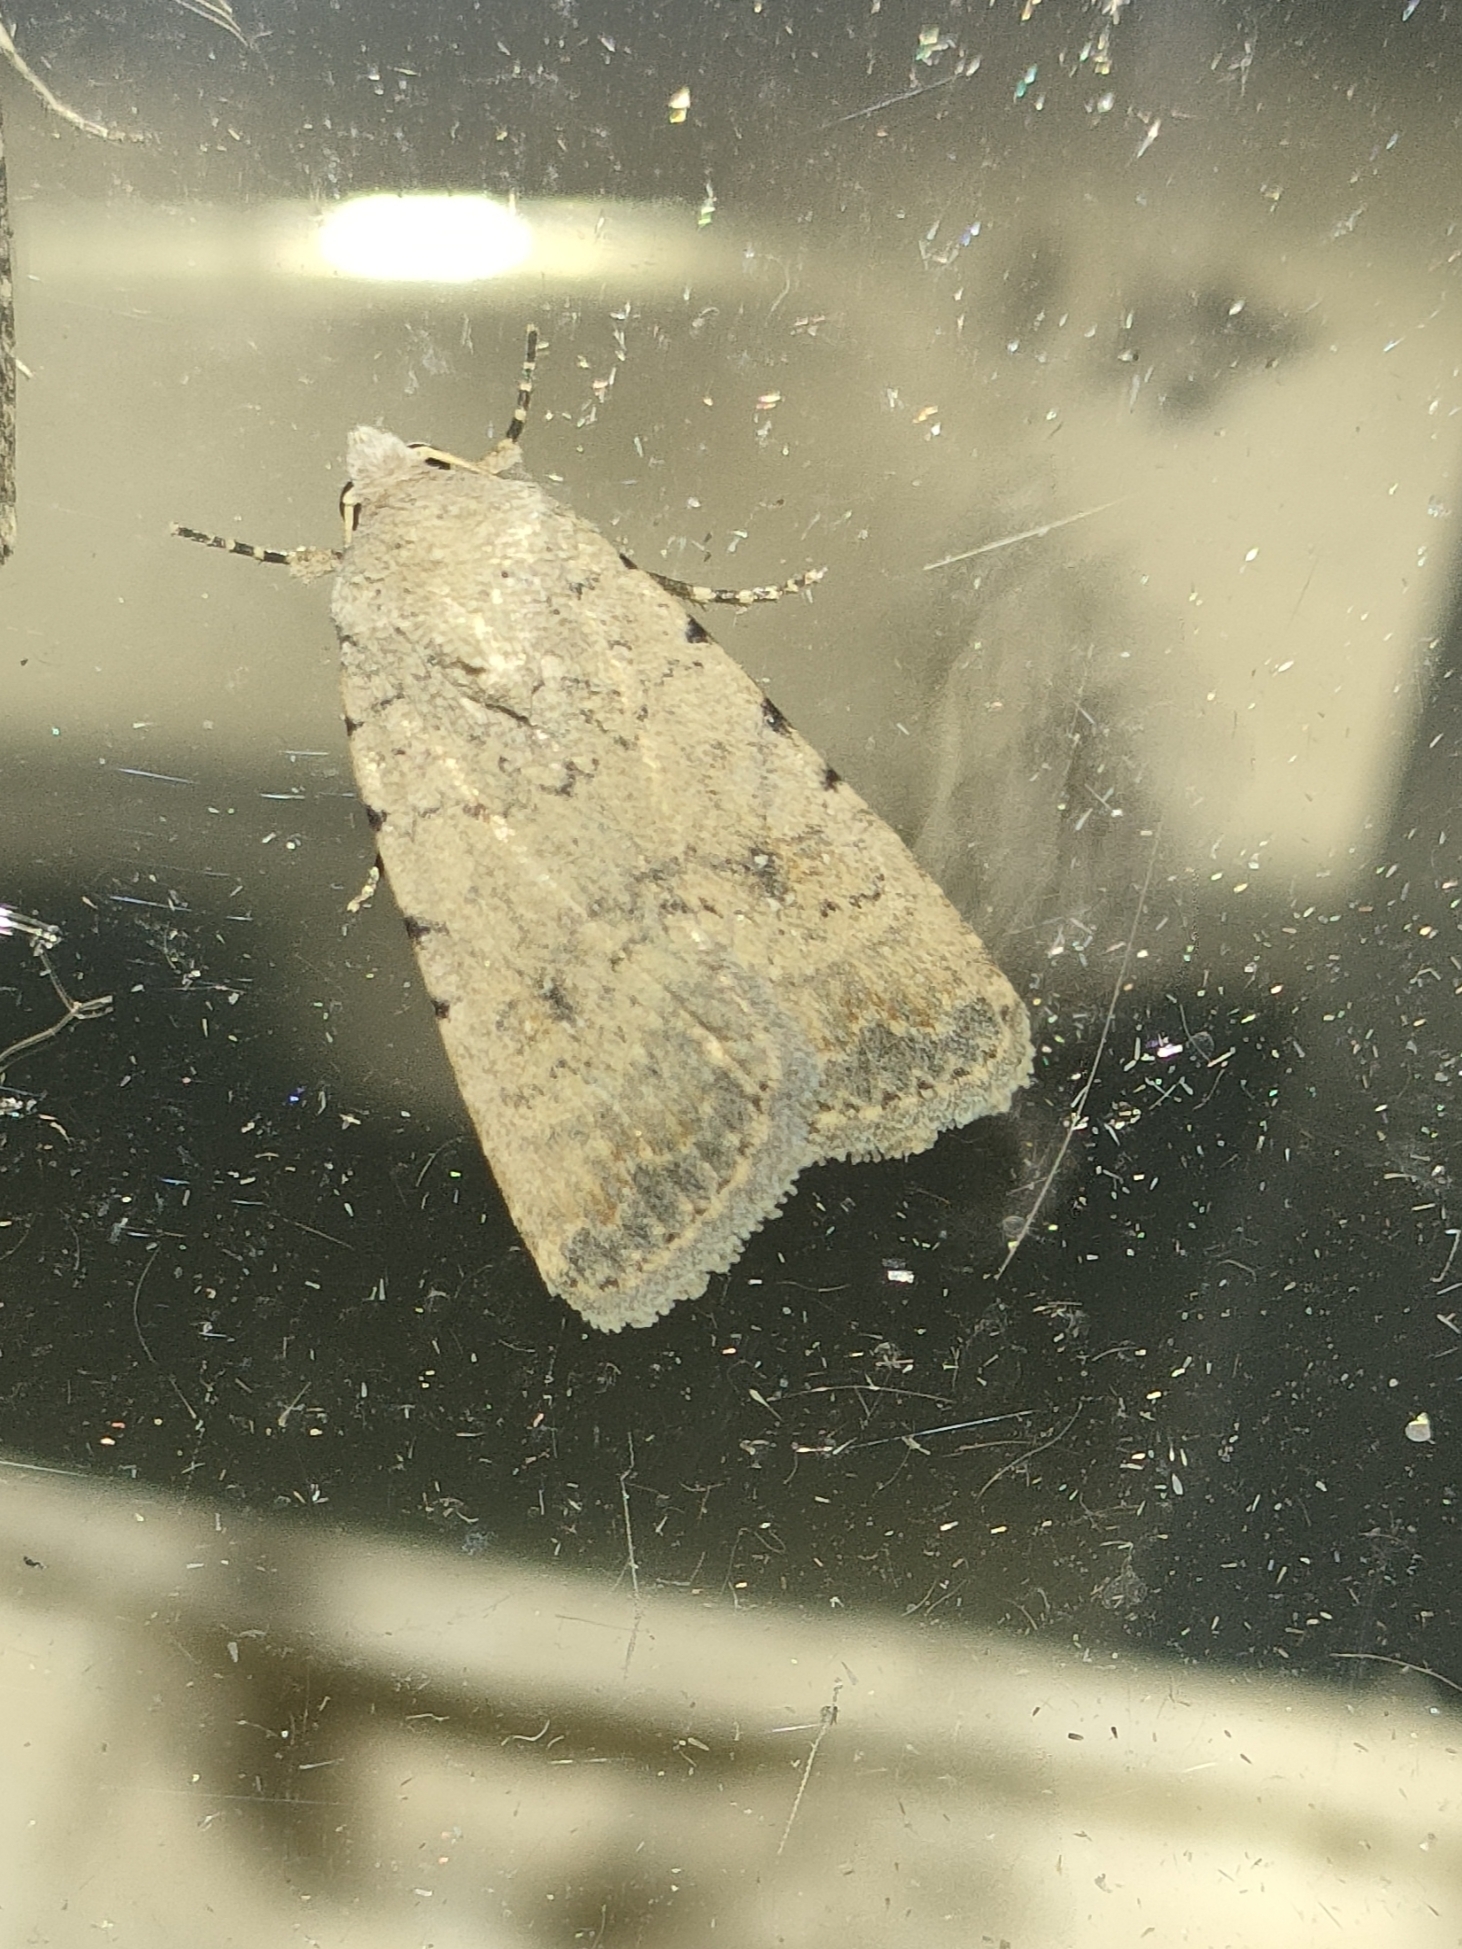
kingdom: Animalia
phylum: Arthropoda
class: Insecta
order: Lepidoptera
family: Noctuidae
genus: Caradrina
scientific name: Caradrina clavipalpis
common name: Pale mottled willow
